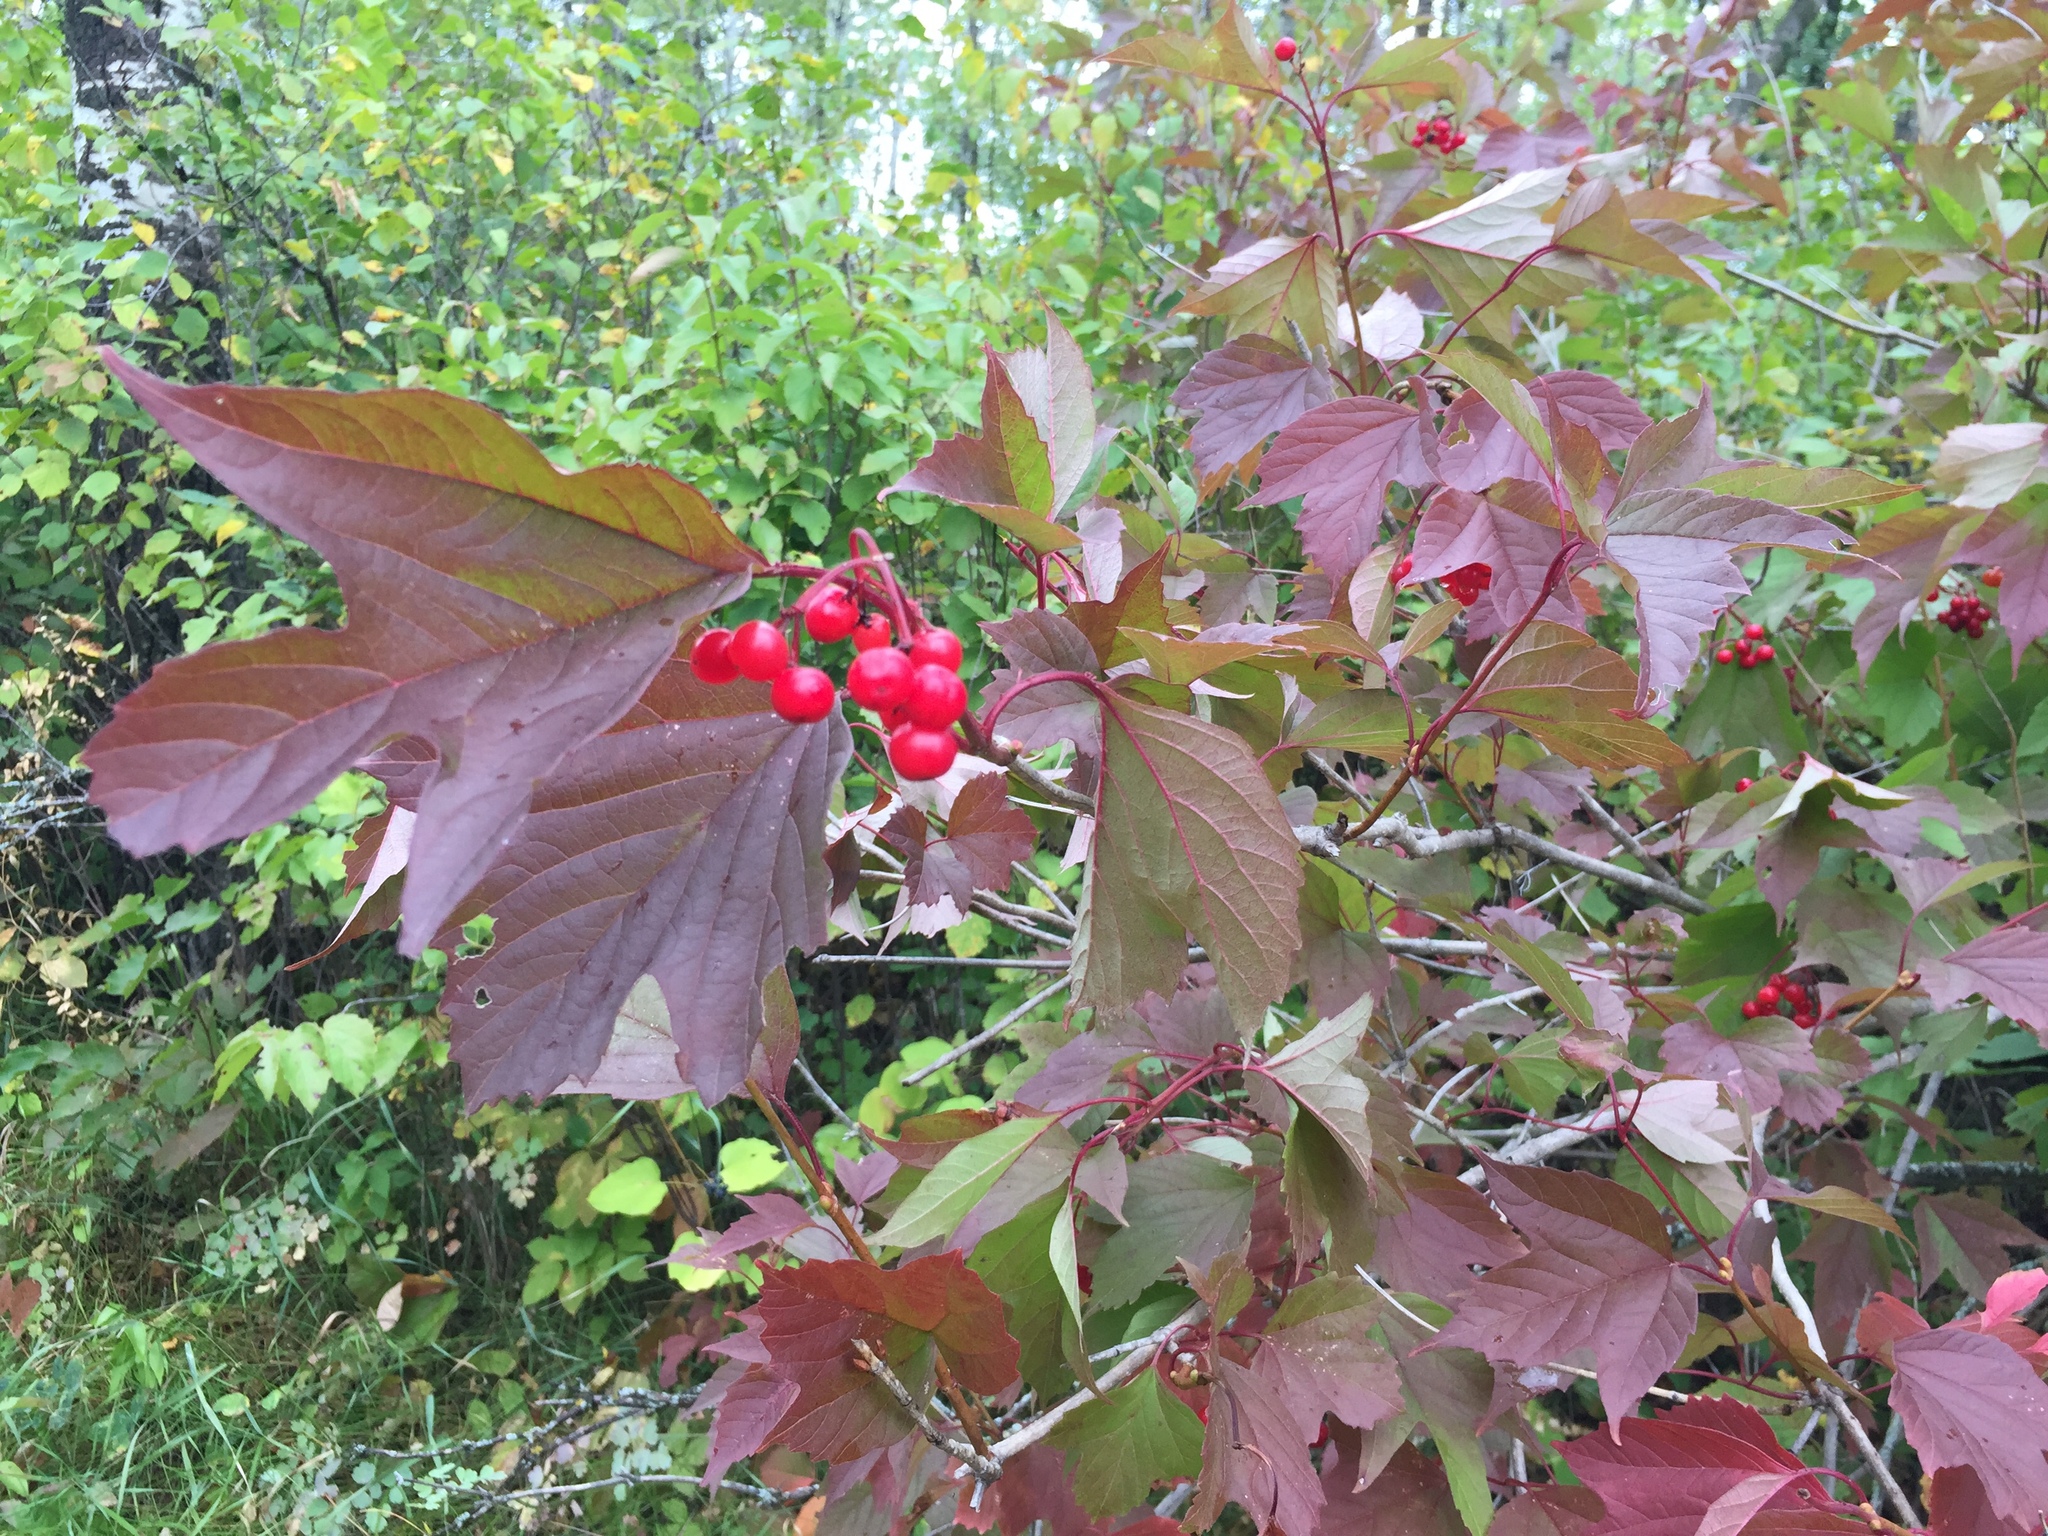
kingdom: Plantae
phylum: Tracheophyta
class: Magnoliopsida
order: Dipsacales
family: Viburnaceae
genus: Viburnum
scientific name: Viburnum trilobum
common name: American cranberrybush
